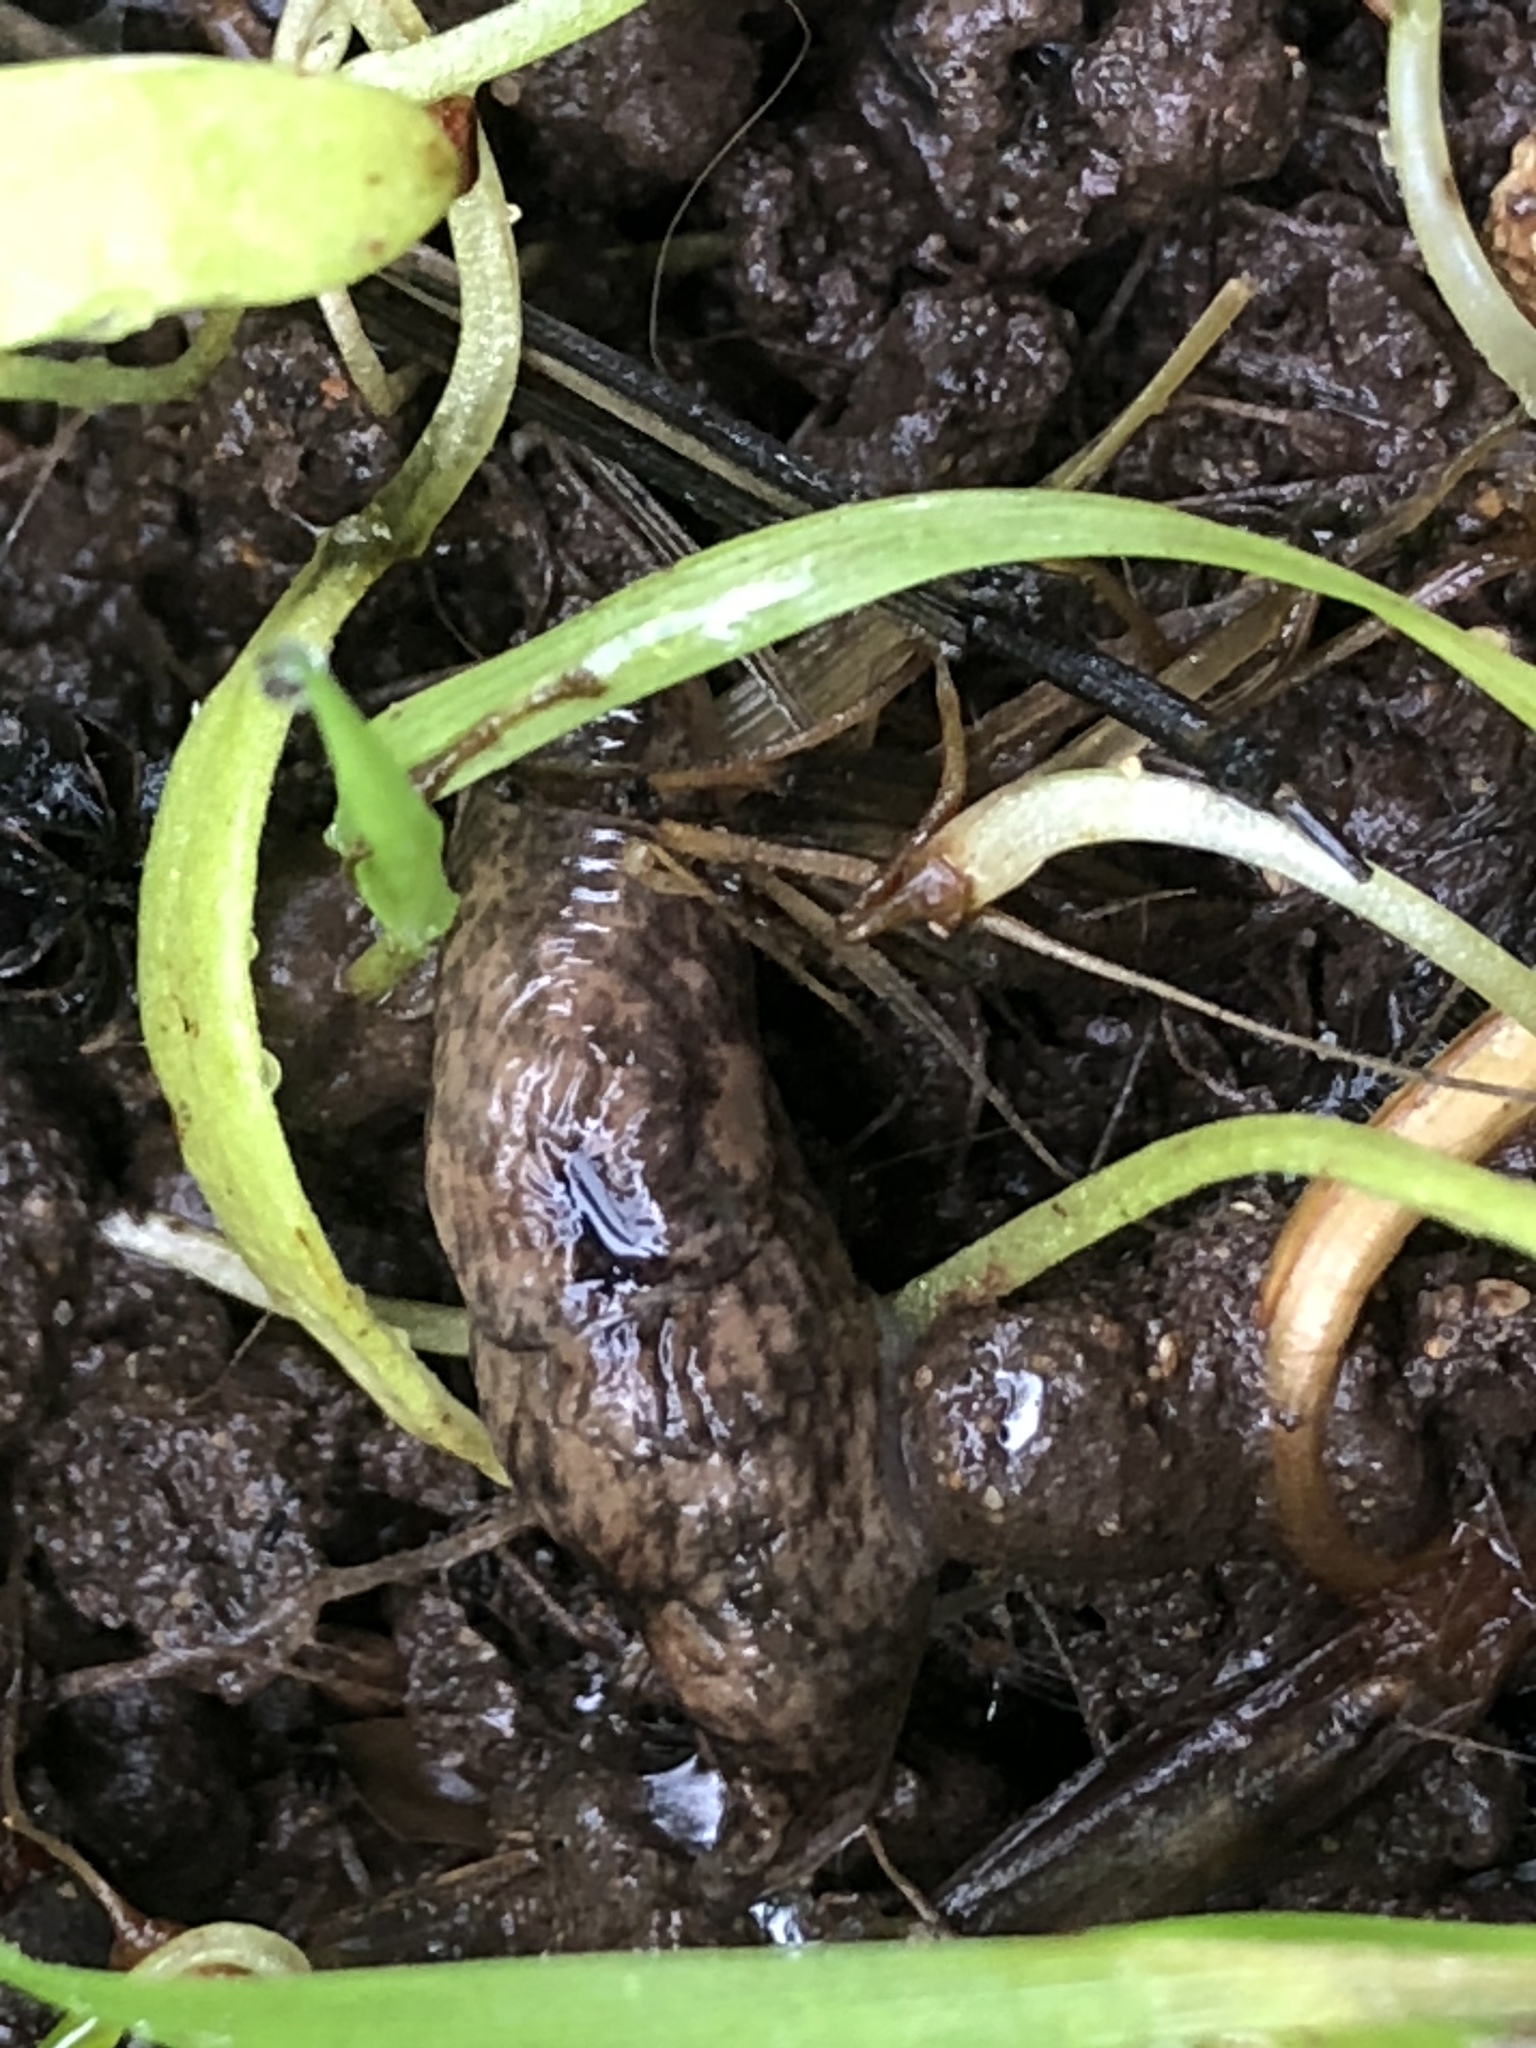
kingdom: Animalia
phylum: Mollusca
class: Gastropoda
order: Stylommatophora
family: Agriolimacidae
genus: Deroceras
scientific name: Deroceras reticulatum
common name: Gray field slug
